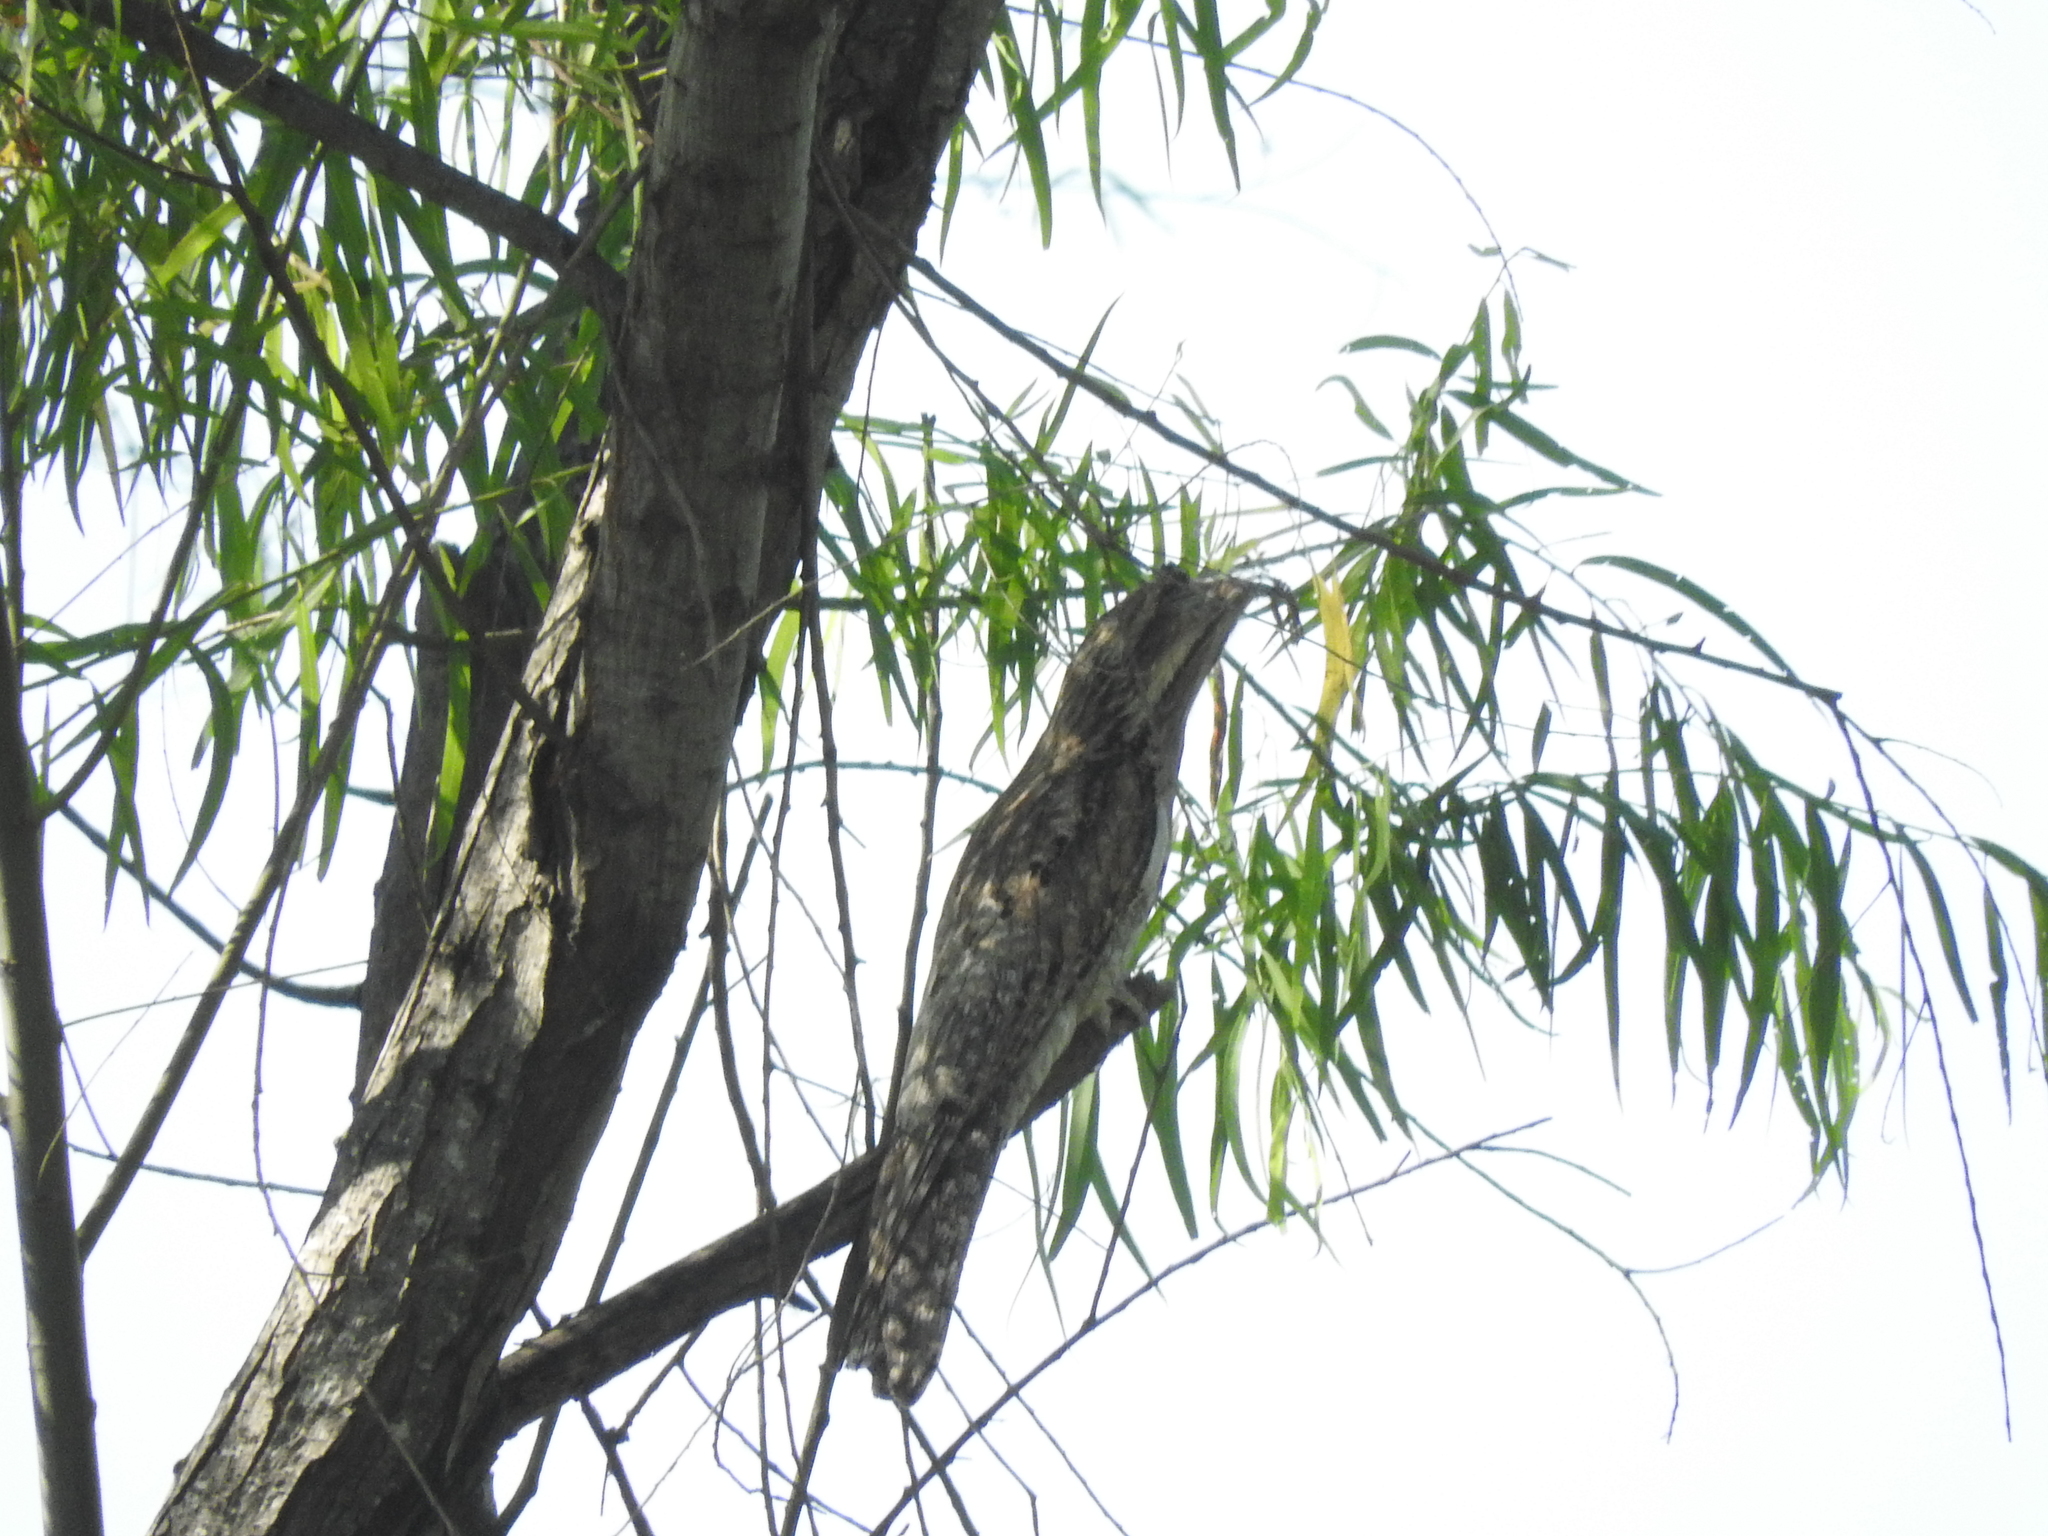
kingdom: Animalia
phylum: Chordata
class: Aves
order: Nyctibiiformes
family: Nyctibiidae
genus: Nyctibius
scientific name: Nyctibius jamaicensis
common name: Northern potoo
